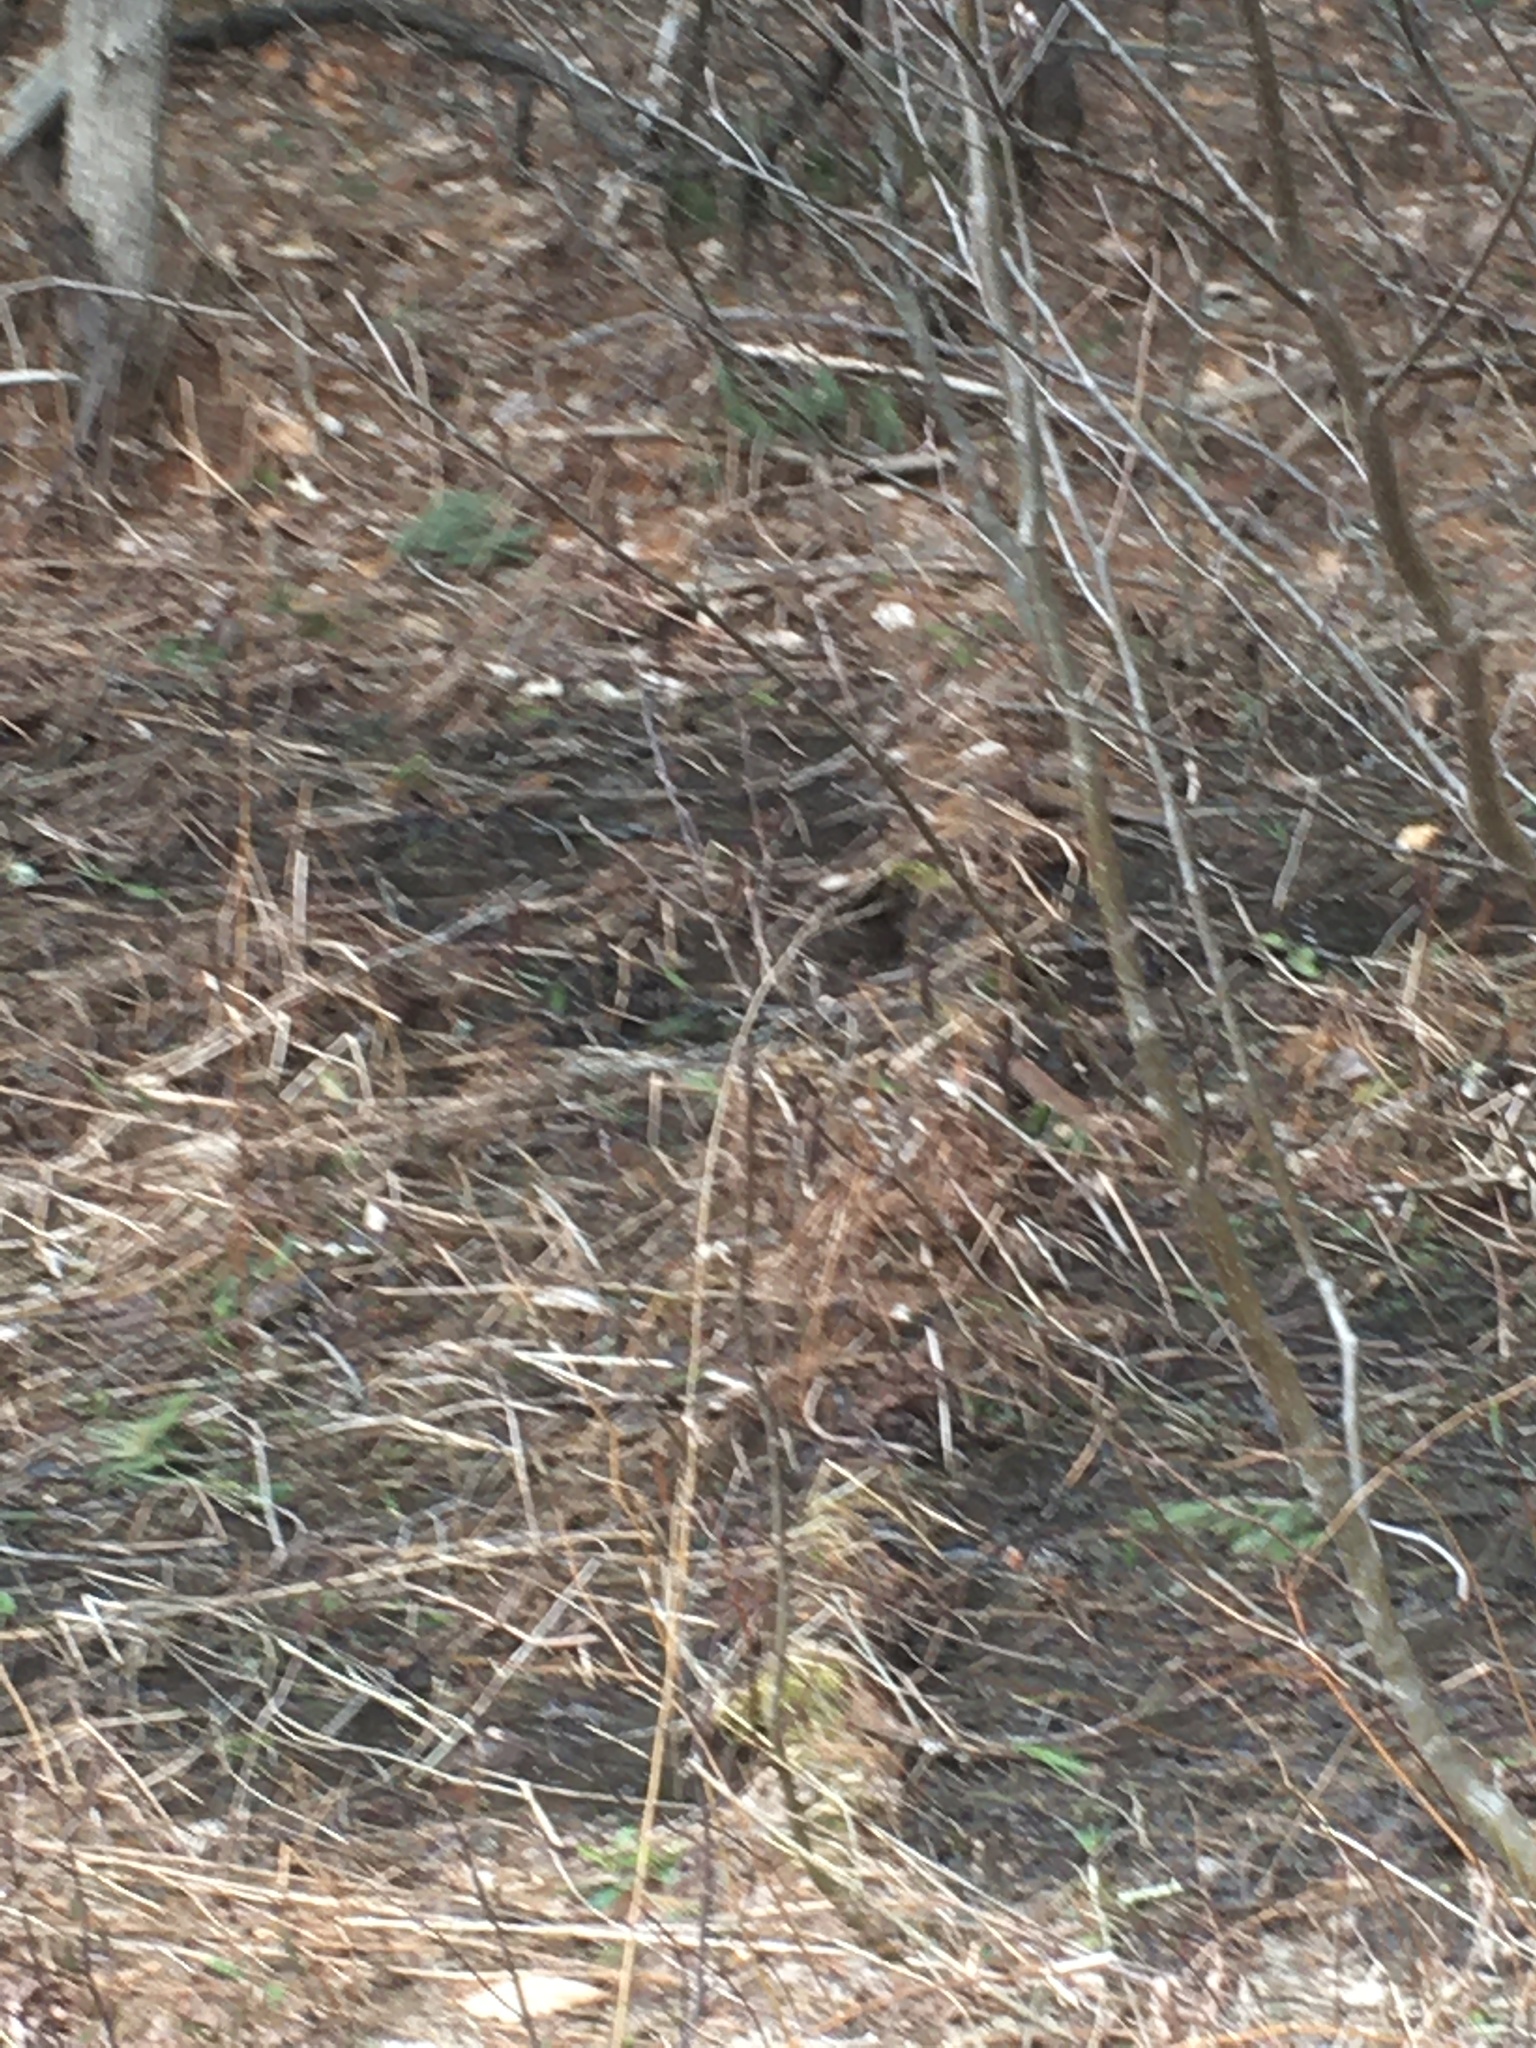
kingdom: Plantae
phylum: Tracheophyta
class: Polypodiopsida
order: Polypodiales
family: Onocleaceae
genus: Onoclea
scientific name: Onoclea sensibilis
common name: Sensitive fern
